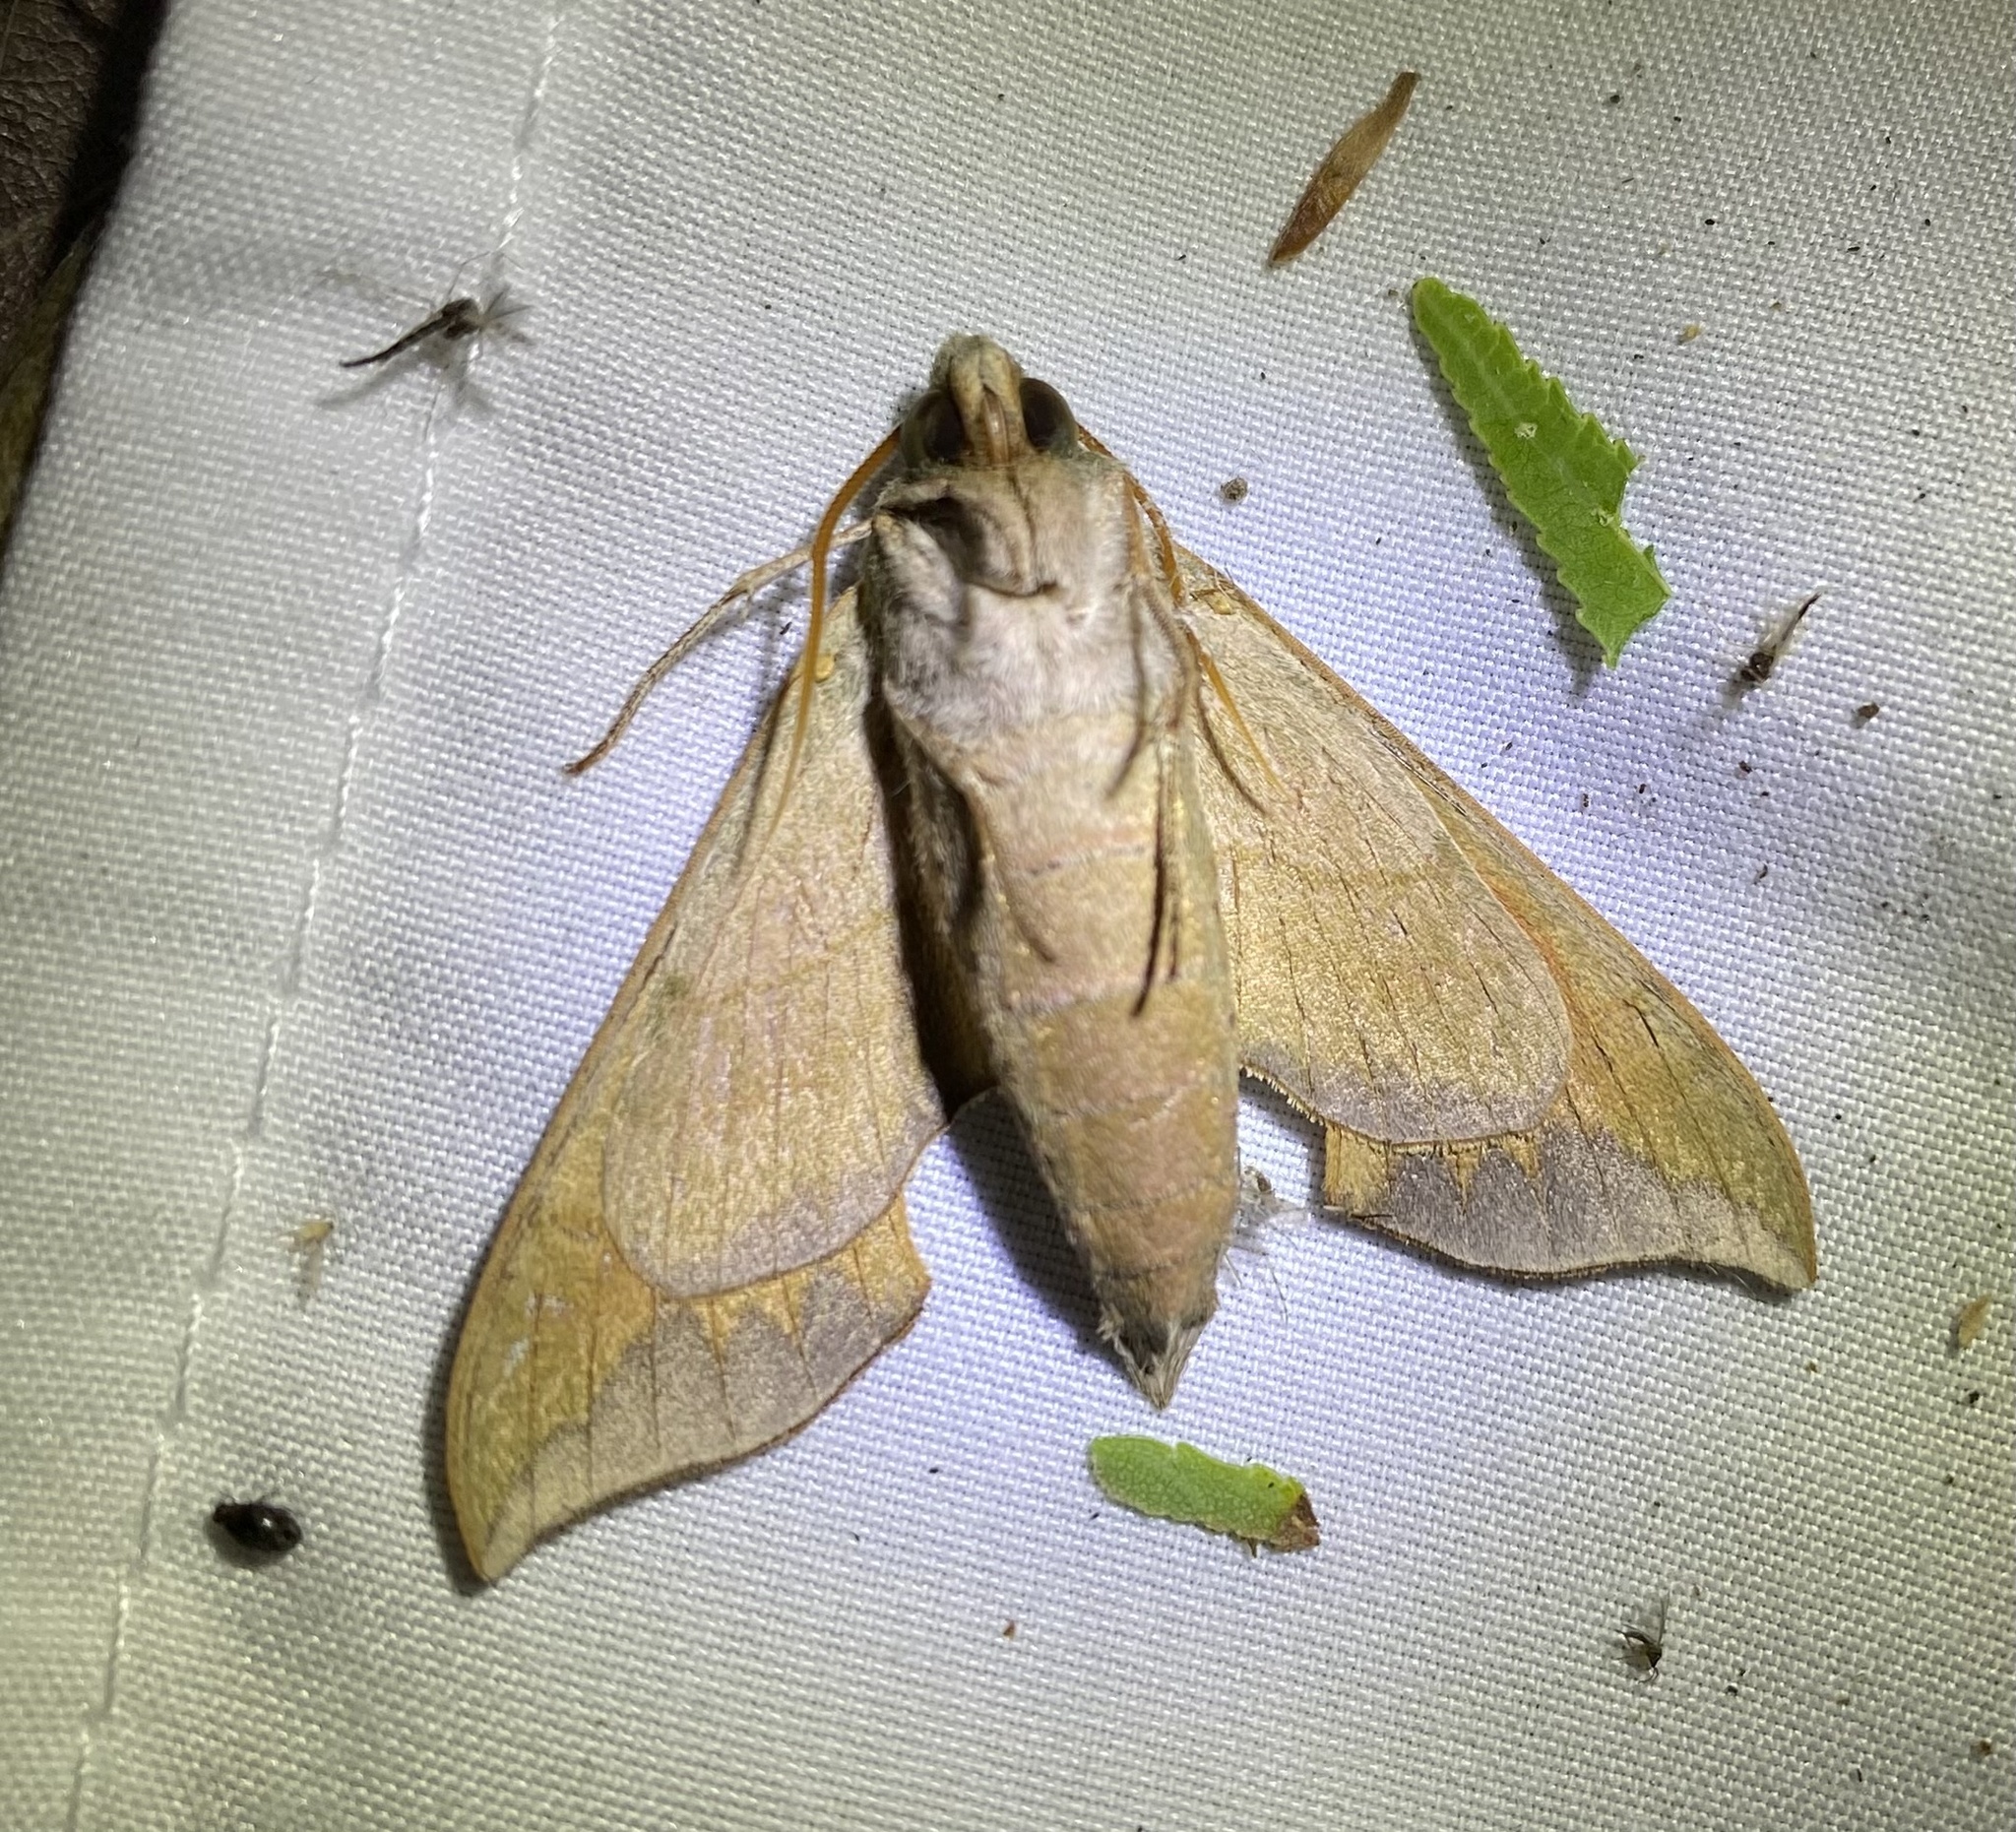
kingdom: Animalia
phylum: Arthropoda
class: Insecta
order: Lepidoptera
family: Sphingidae
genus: Lapara
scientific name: Lapara coniferarum
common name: Southern pine sphinx
